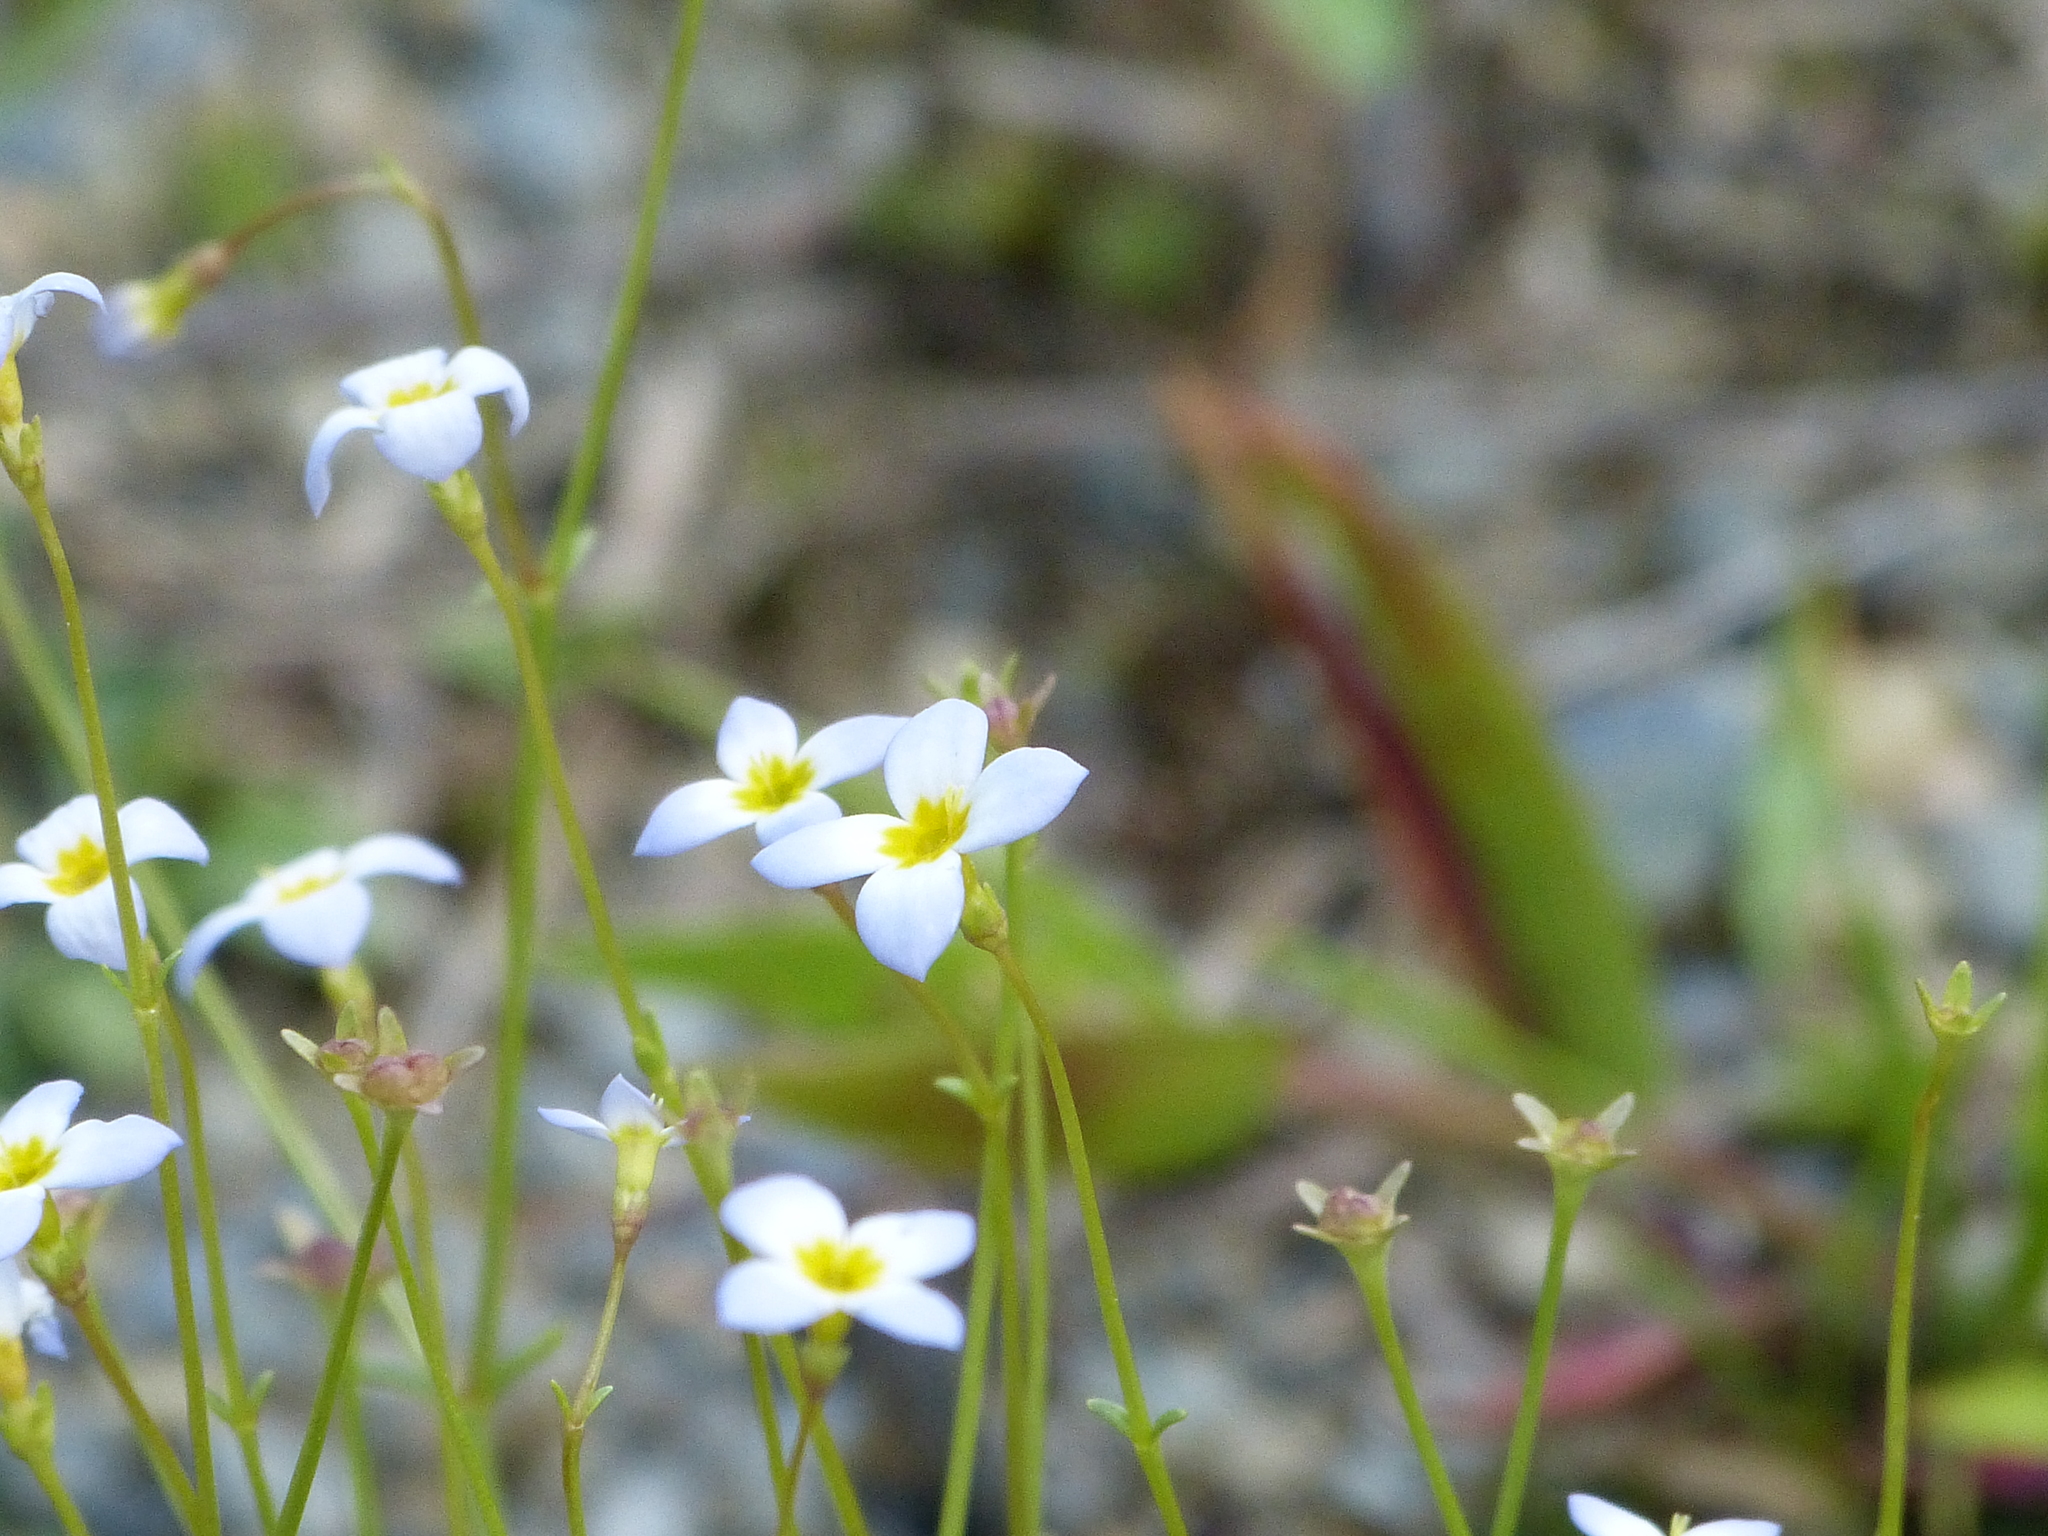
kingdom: Plantae
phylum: Tracheophyta
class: Magnoliopsida
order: Gentianales
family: Rubiaceae
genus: Houstonia
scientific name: Houstonia caerulea
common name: Bluets
